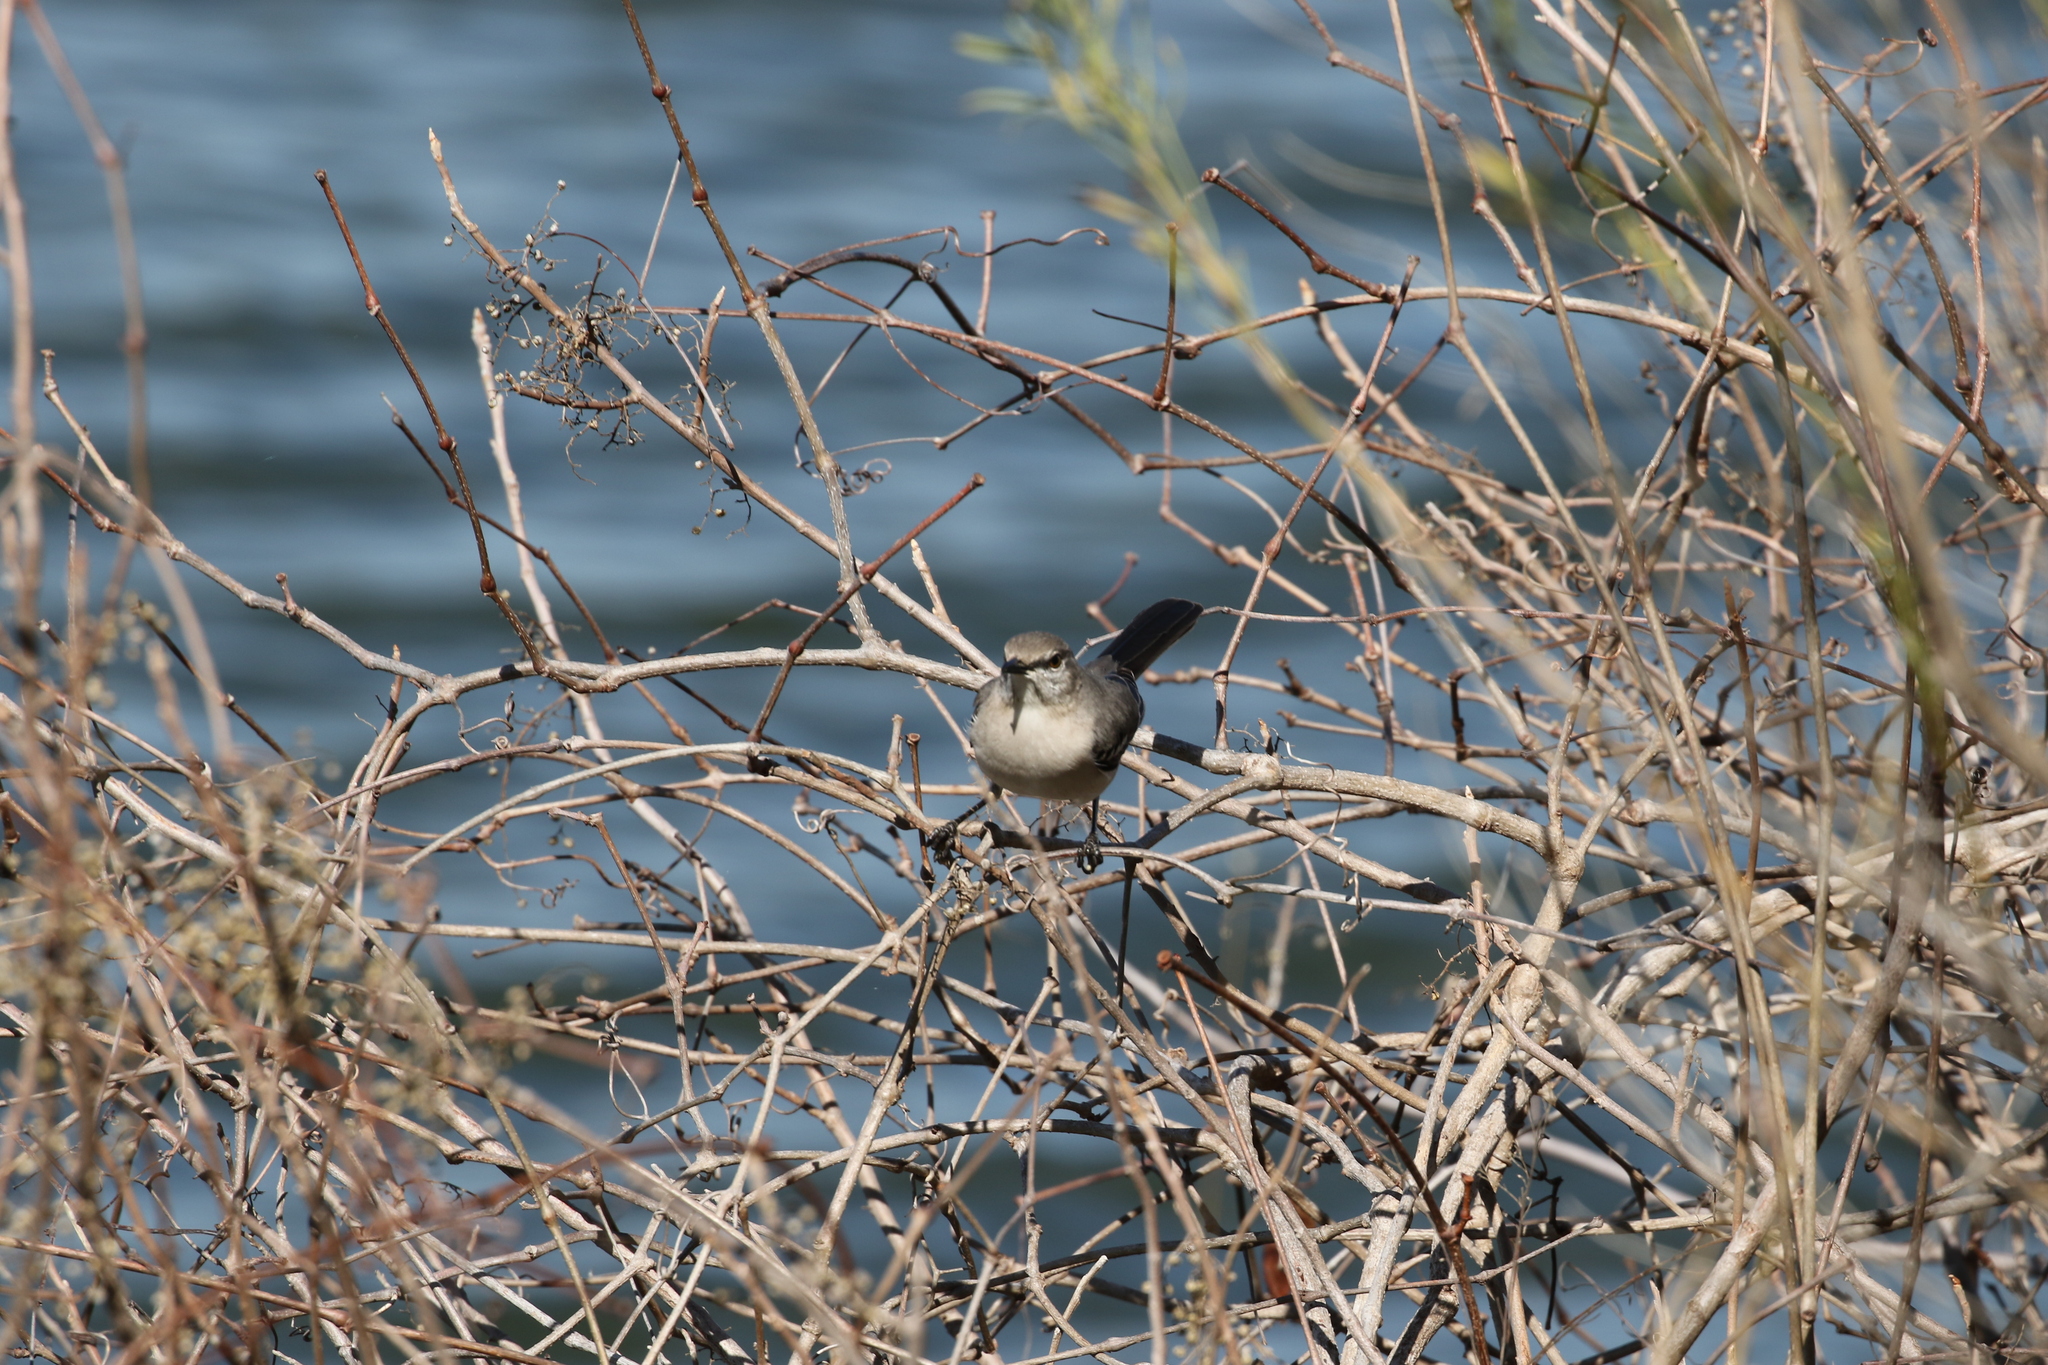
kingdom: Animalia
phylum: Chordata
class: Aves
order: Passeriformes
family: Mimidae
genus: Mimus
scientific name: Mimus polyglottos
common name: Northern mockingbird
